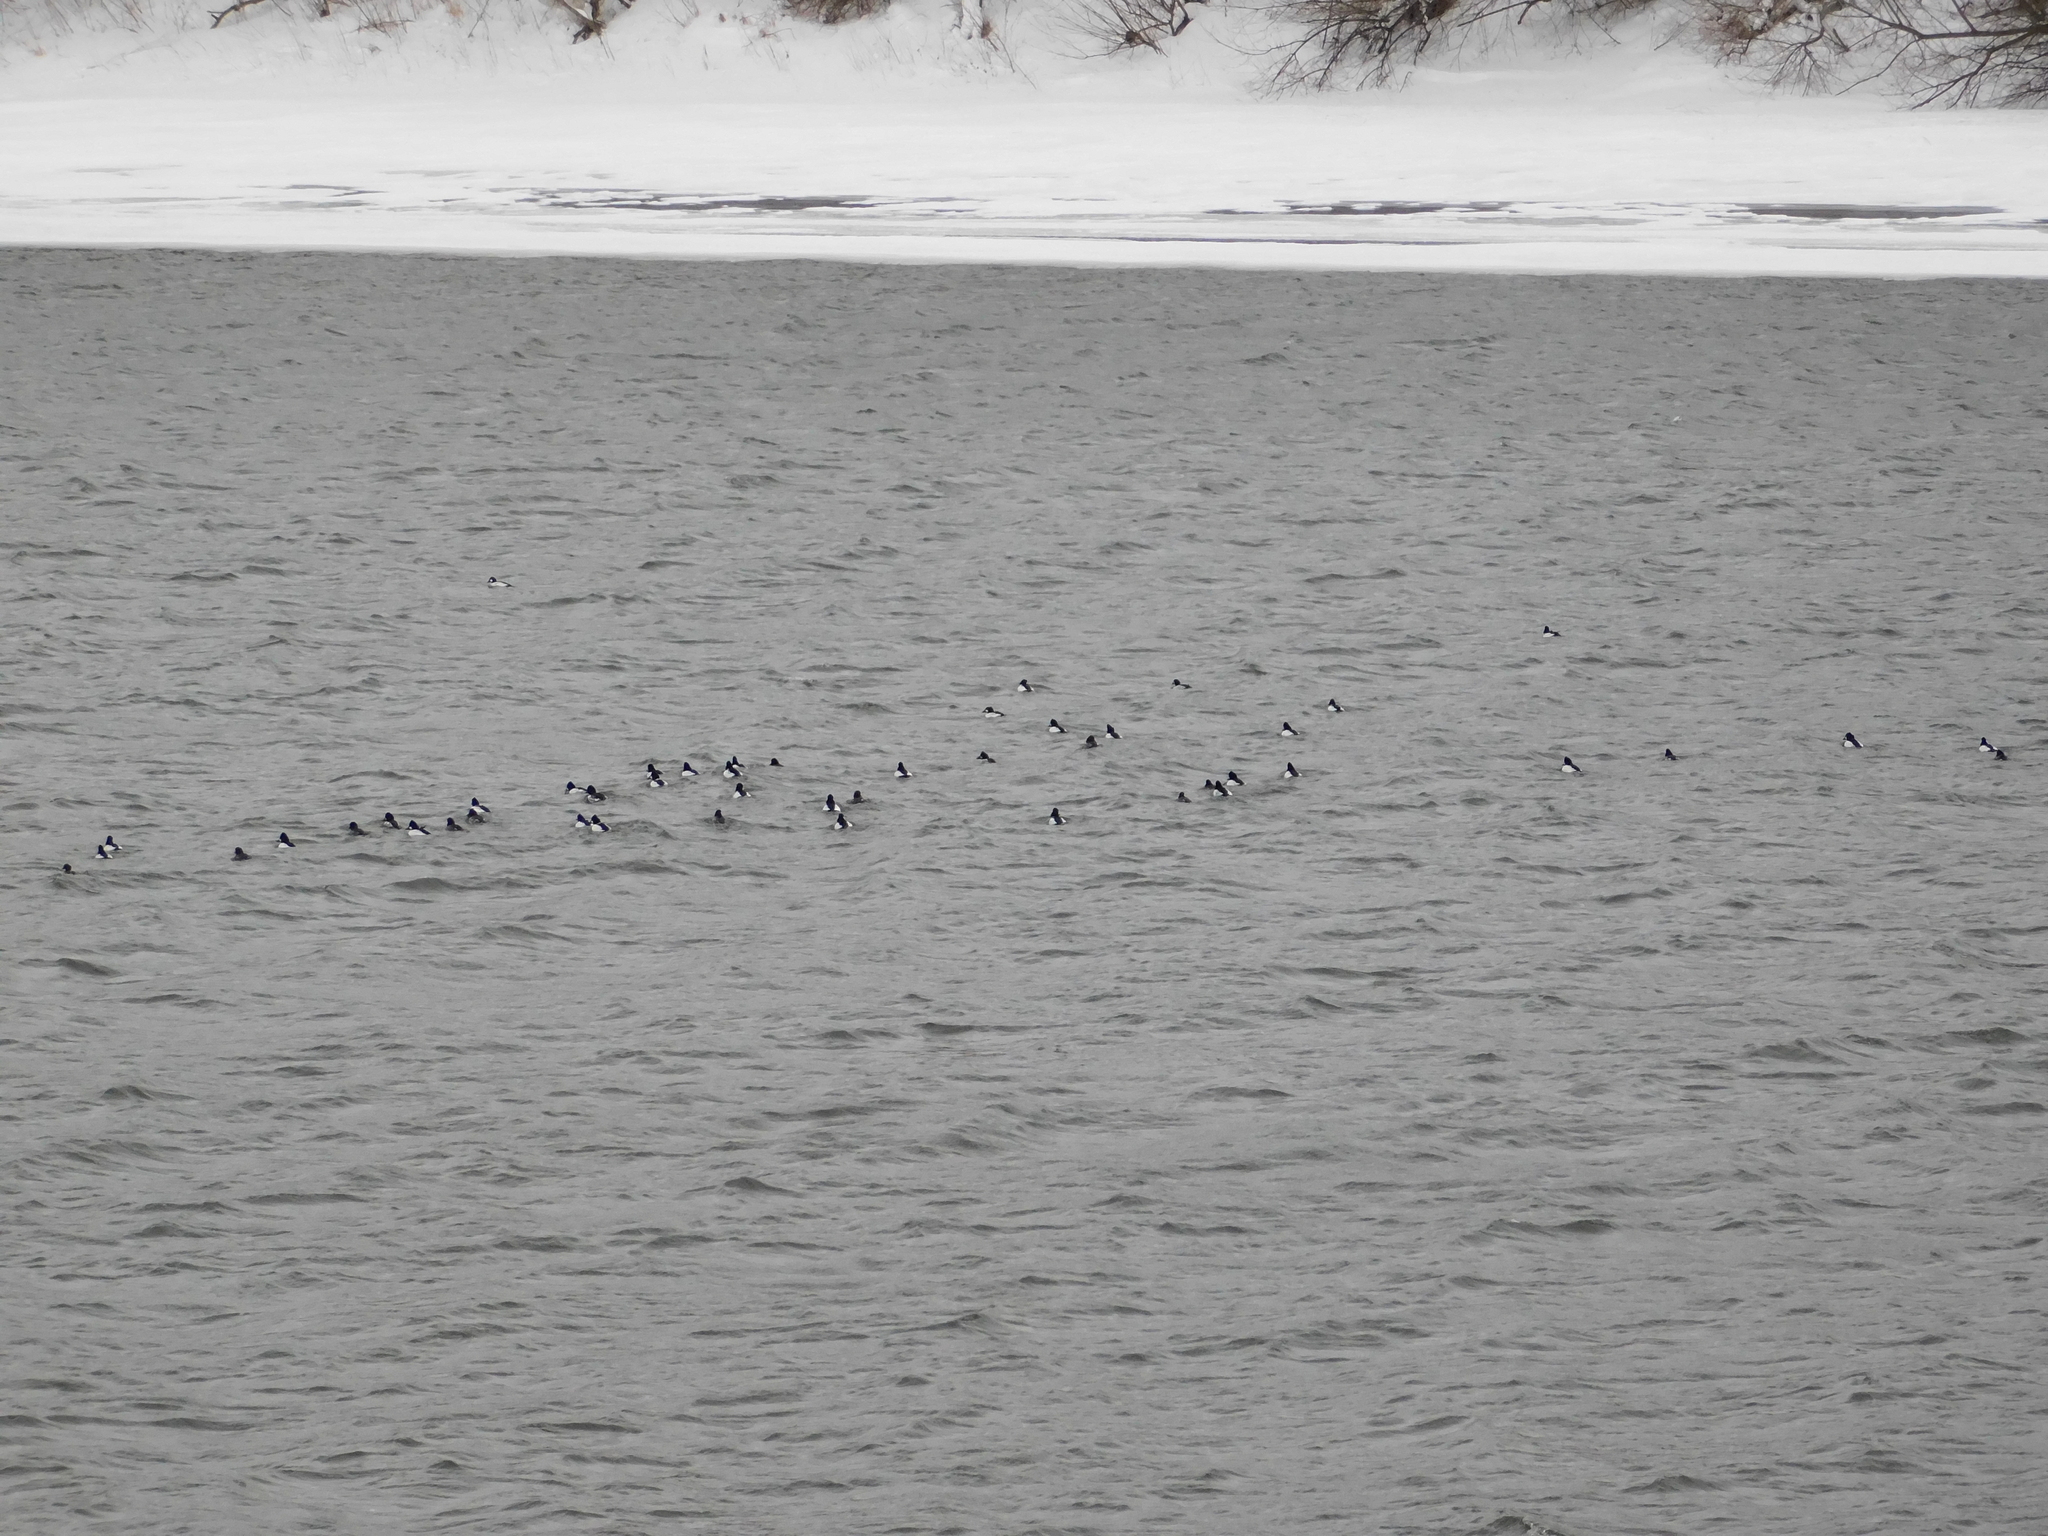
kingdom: Animalia
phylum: Chordata
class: Aves
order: Anseriformes
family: Anatidae
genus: Bucephala
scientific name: Bucephala clangula
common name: Common goldeneye
